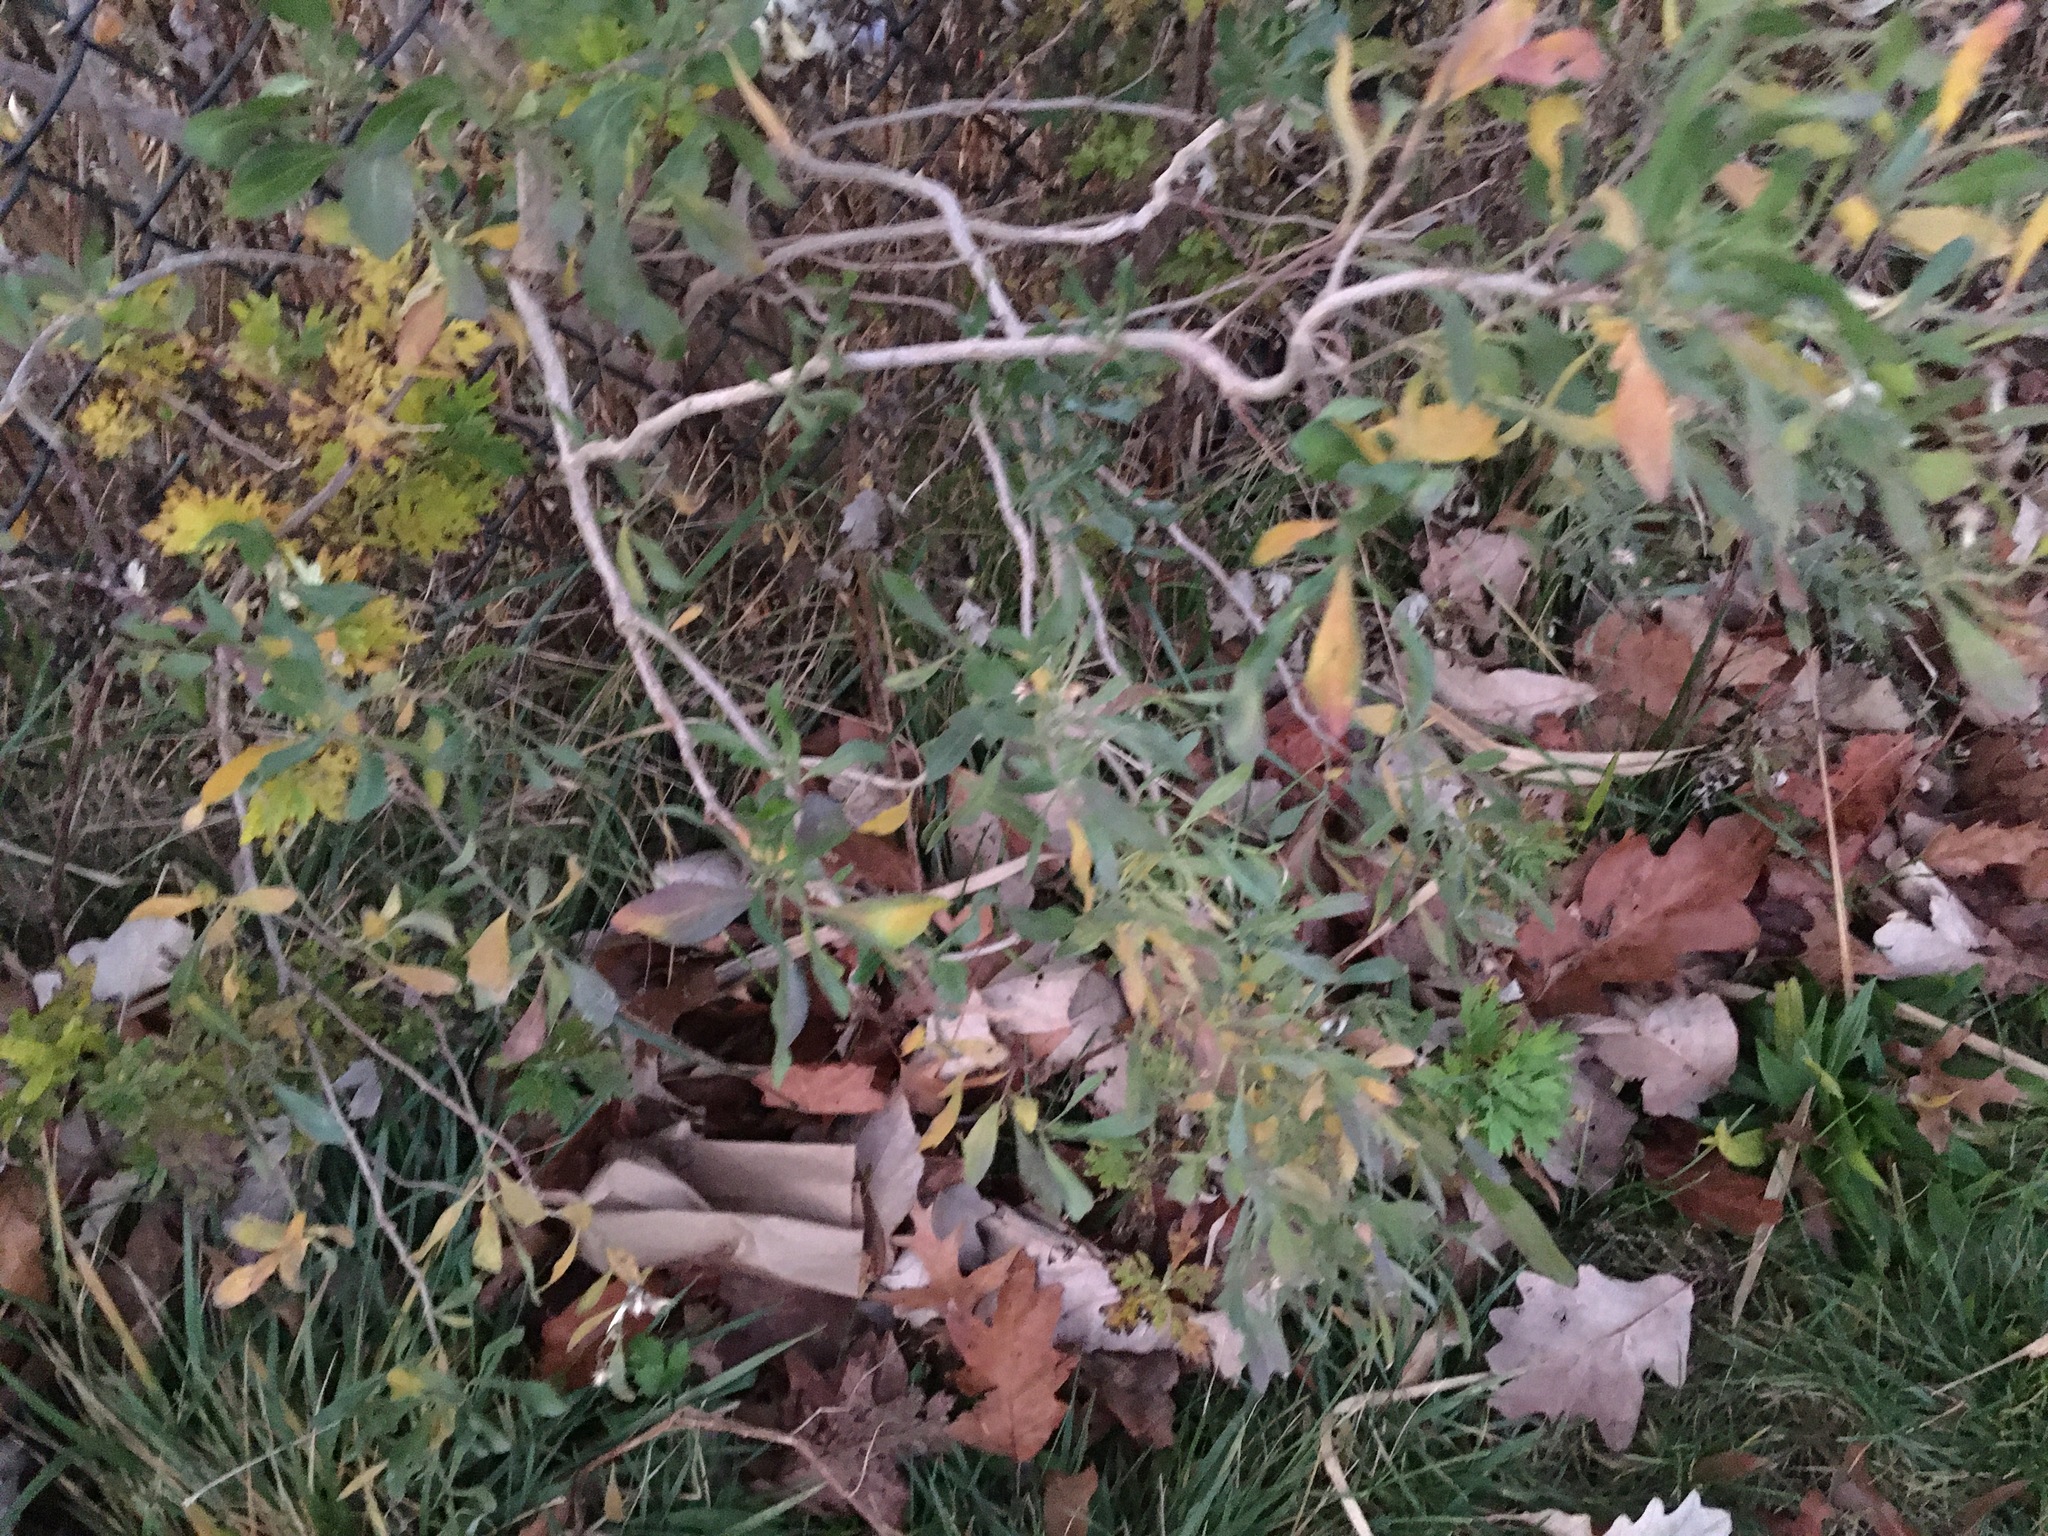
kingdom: Plantae
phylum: Tracheophyta
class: Magnoliopsida
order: Asterales
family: Asteraceae
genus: Baccharis
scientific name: Baccharis halimifolia
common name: Eastern baccharis
